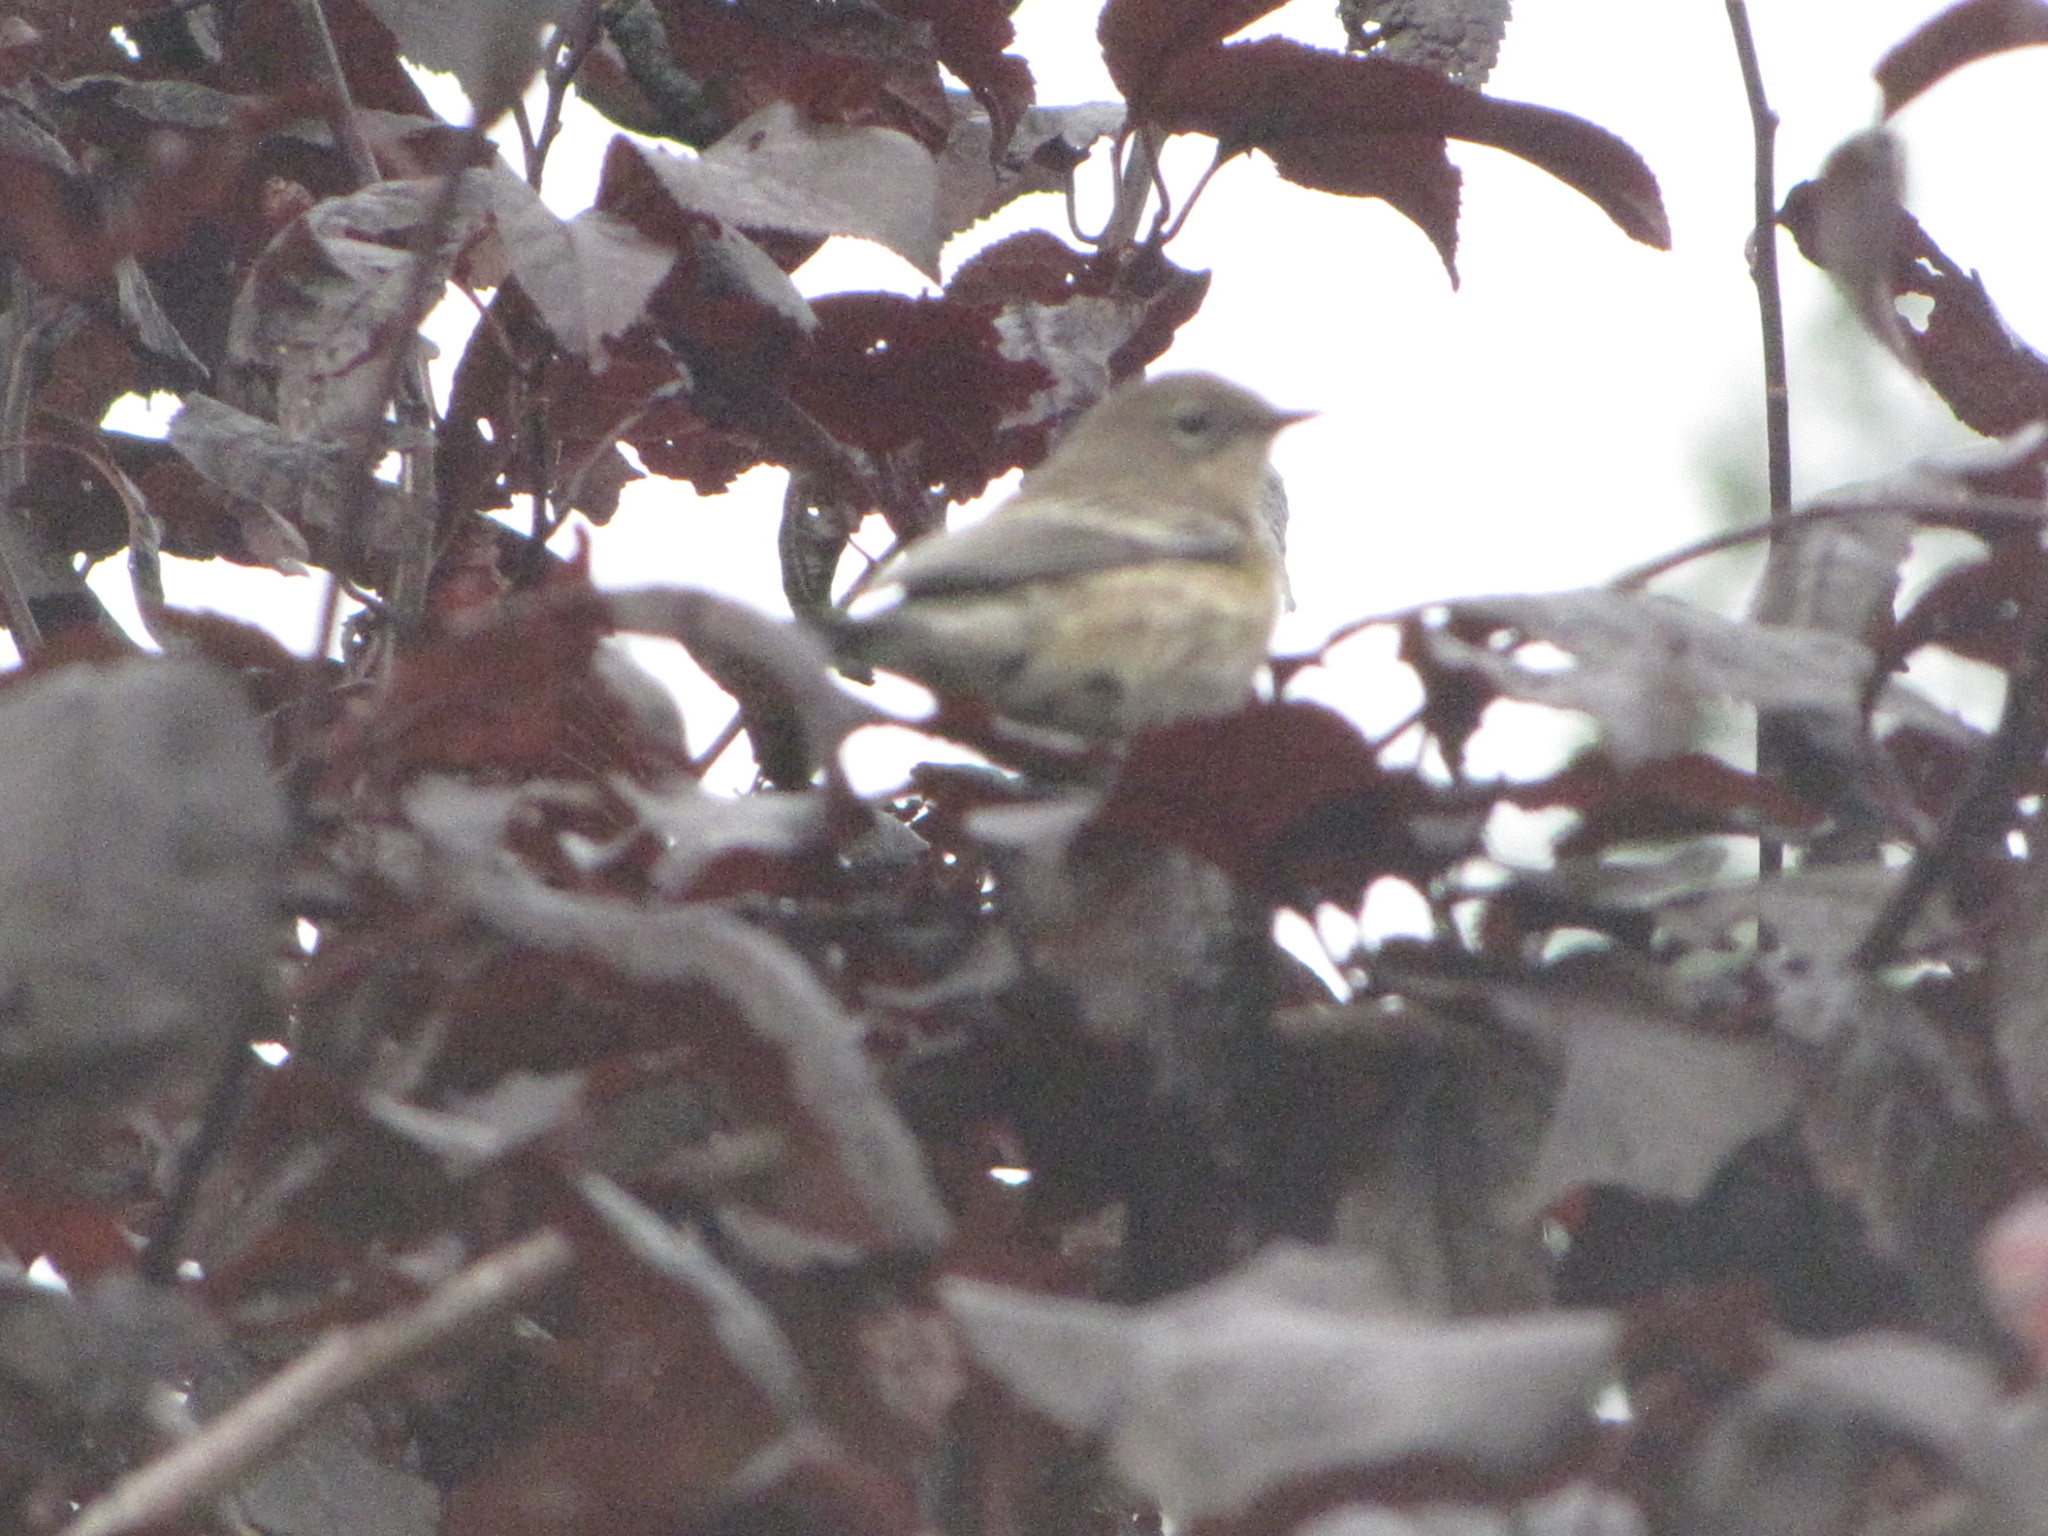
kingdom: Animalia
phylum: Chordata
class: Aves
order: Passeriformes
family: Parulidae
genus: Setophaga
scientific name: Setophaga coronata
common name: Myrtle warbler
